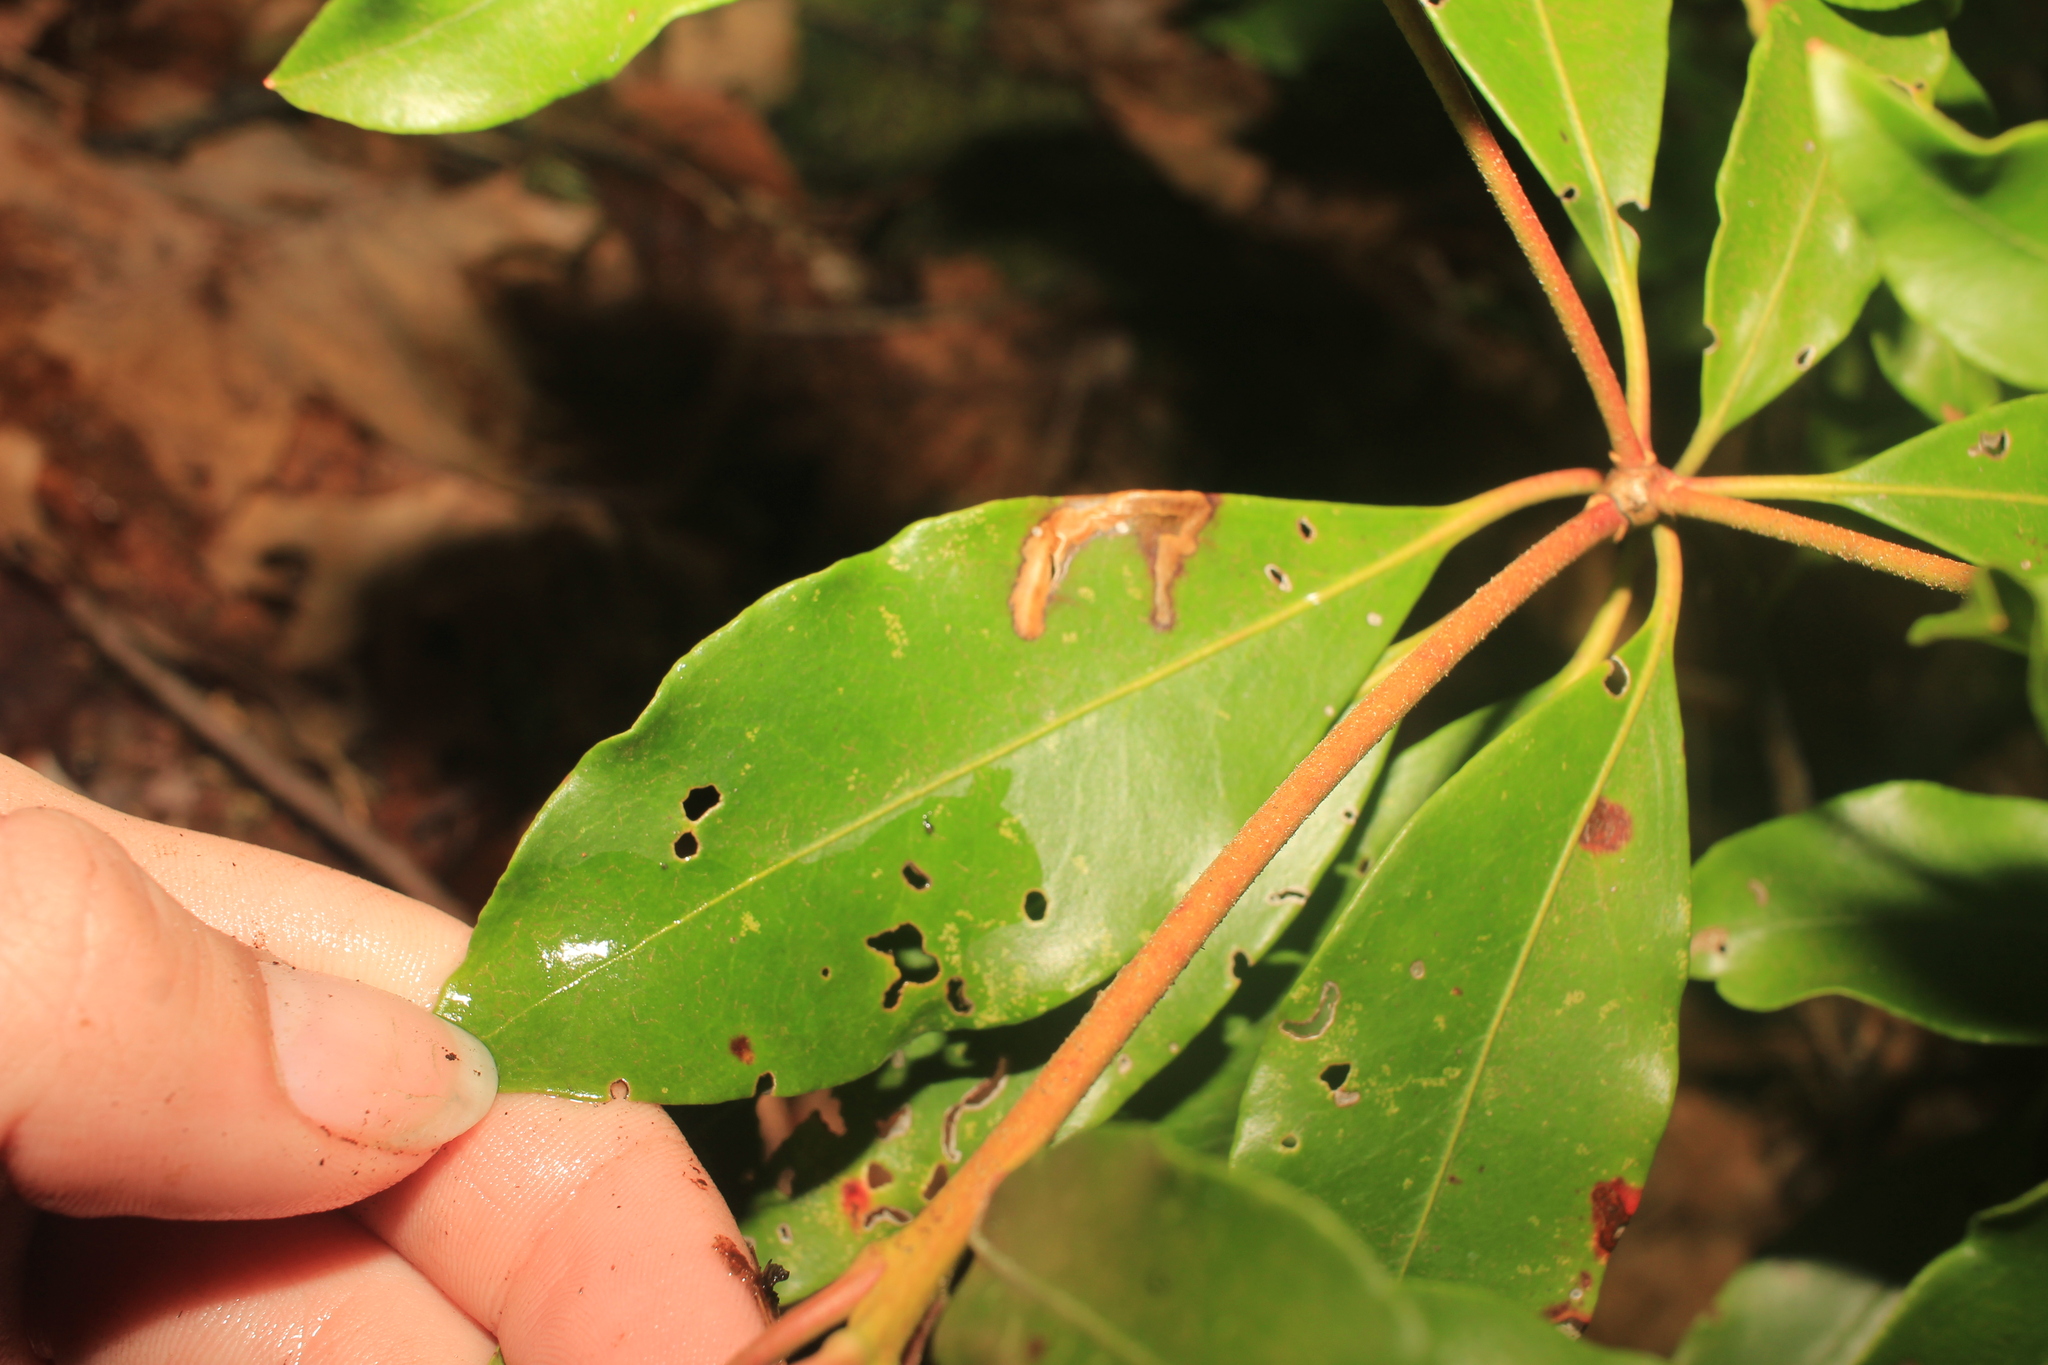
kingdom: Animalia
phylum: Arthropoda
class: Insecta
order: Lepidoptera
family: Coleophoridae
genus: Coleophora
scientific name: Coleophora kalmiella
